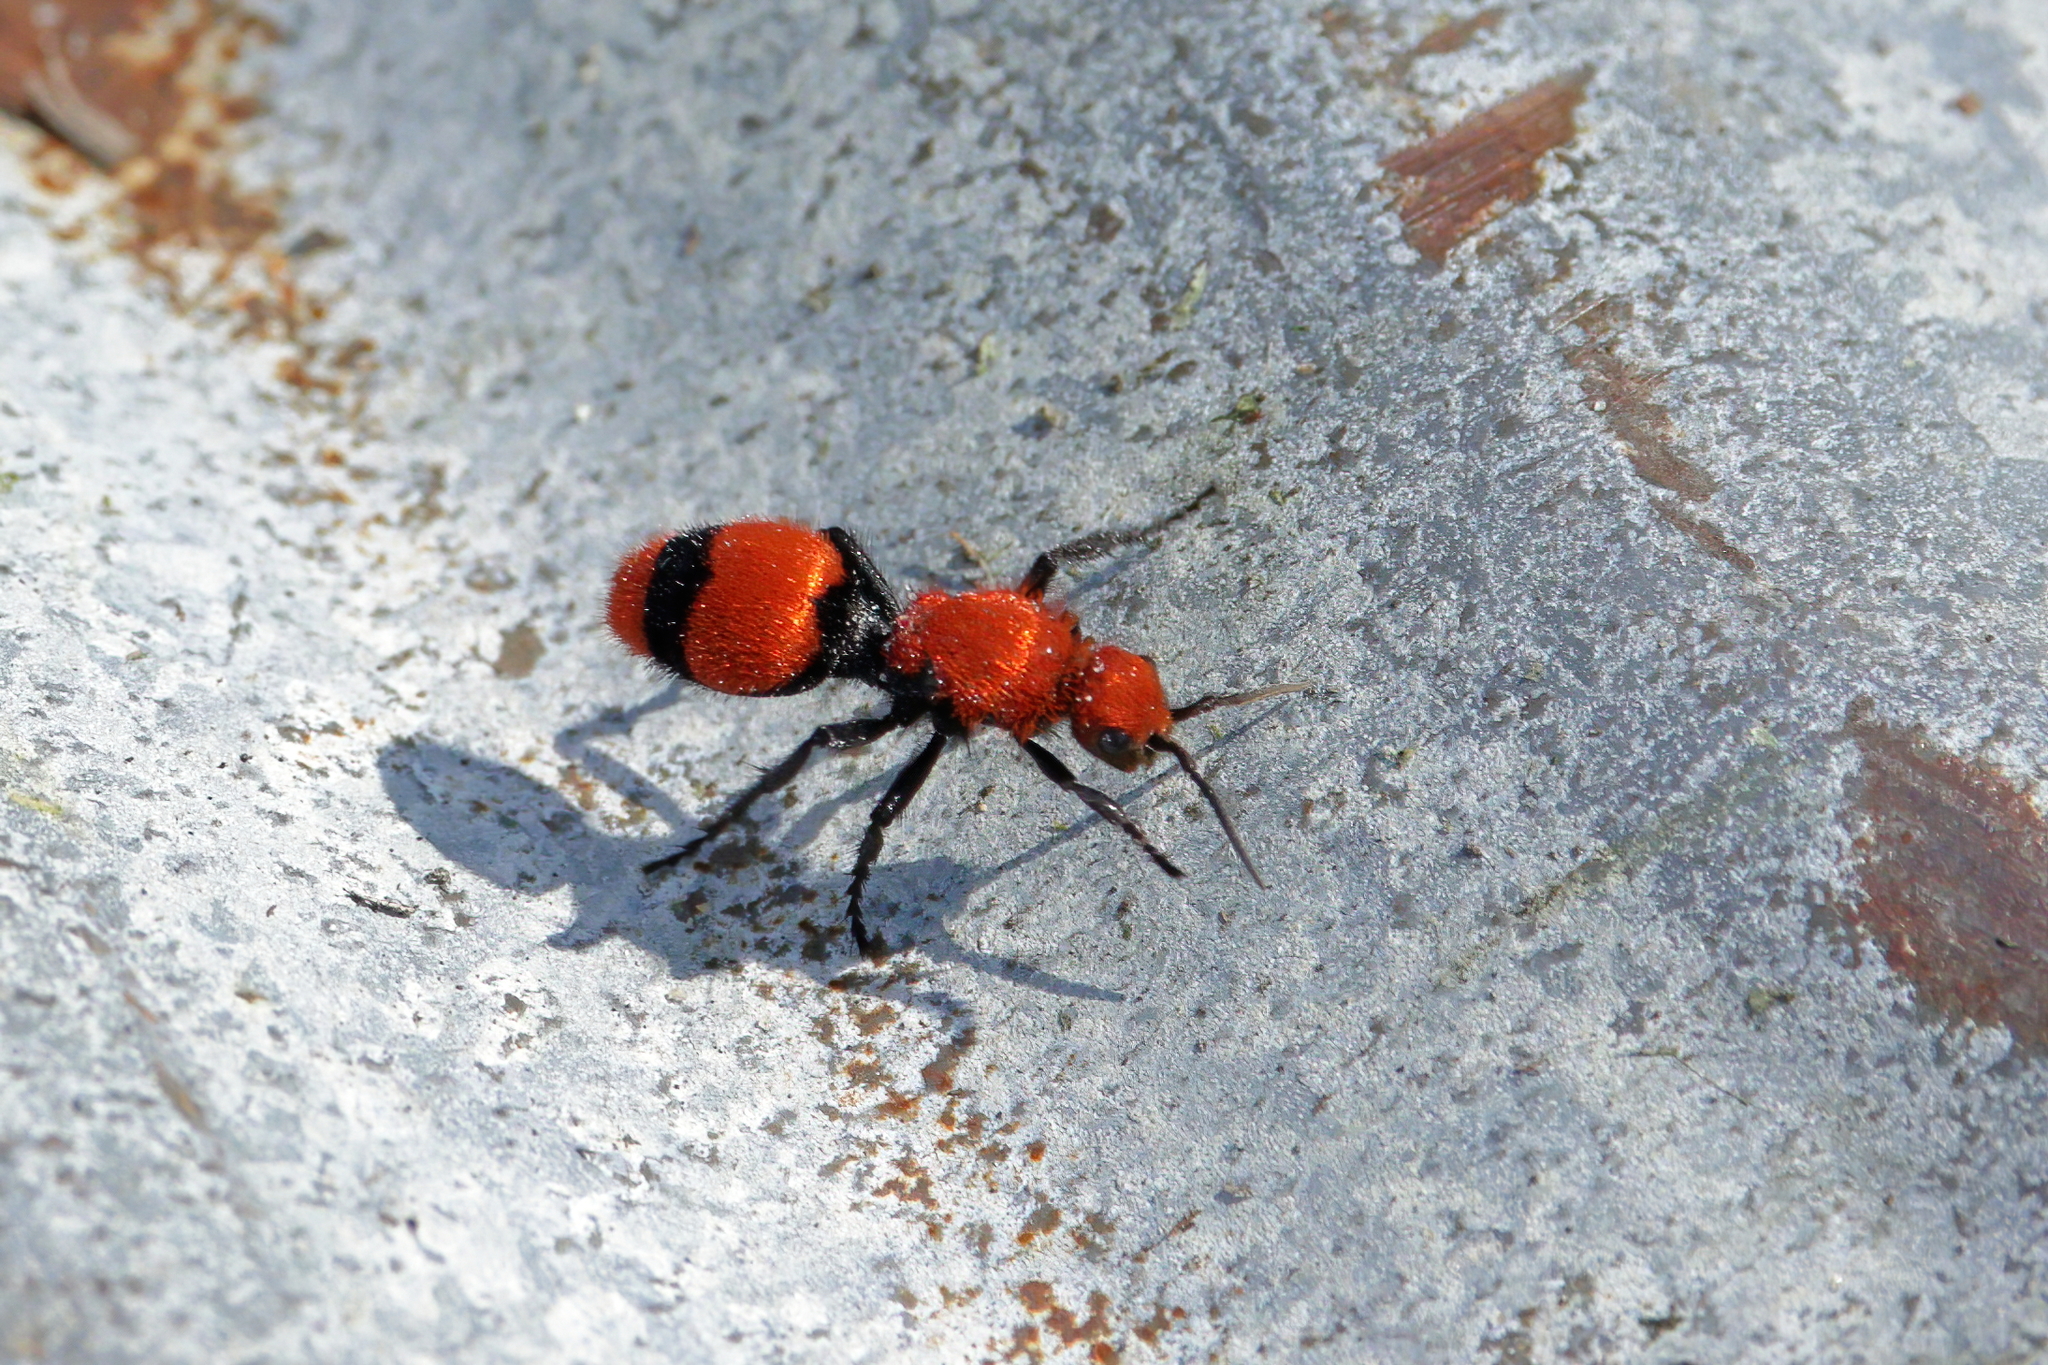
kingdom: Animalia
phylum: Arthropoda
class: Insecta
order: Hymenoptera
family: Mutillidae
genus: Dasymutilla
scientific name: Dasymutilla occidentalis
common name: Common eastern velvet ant
